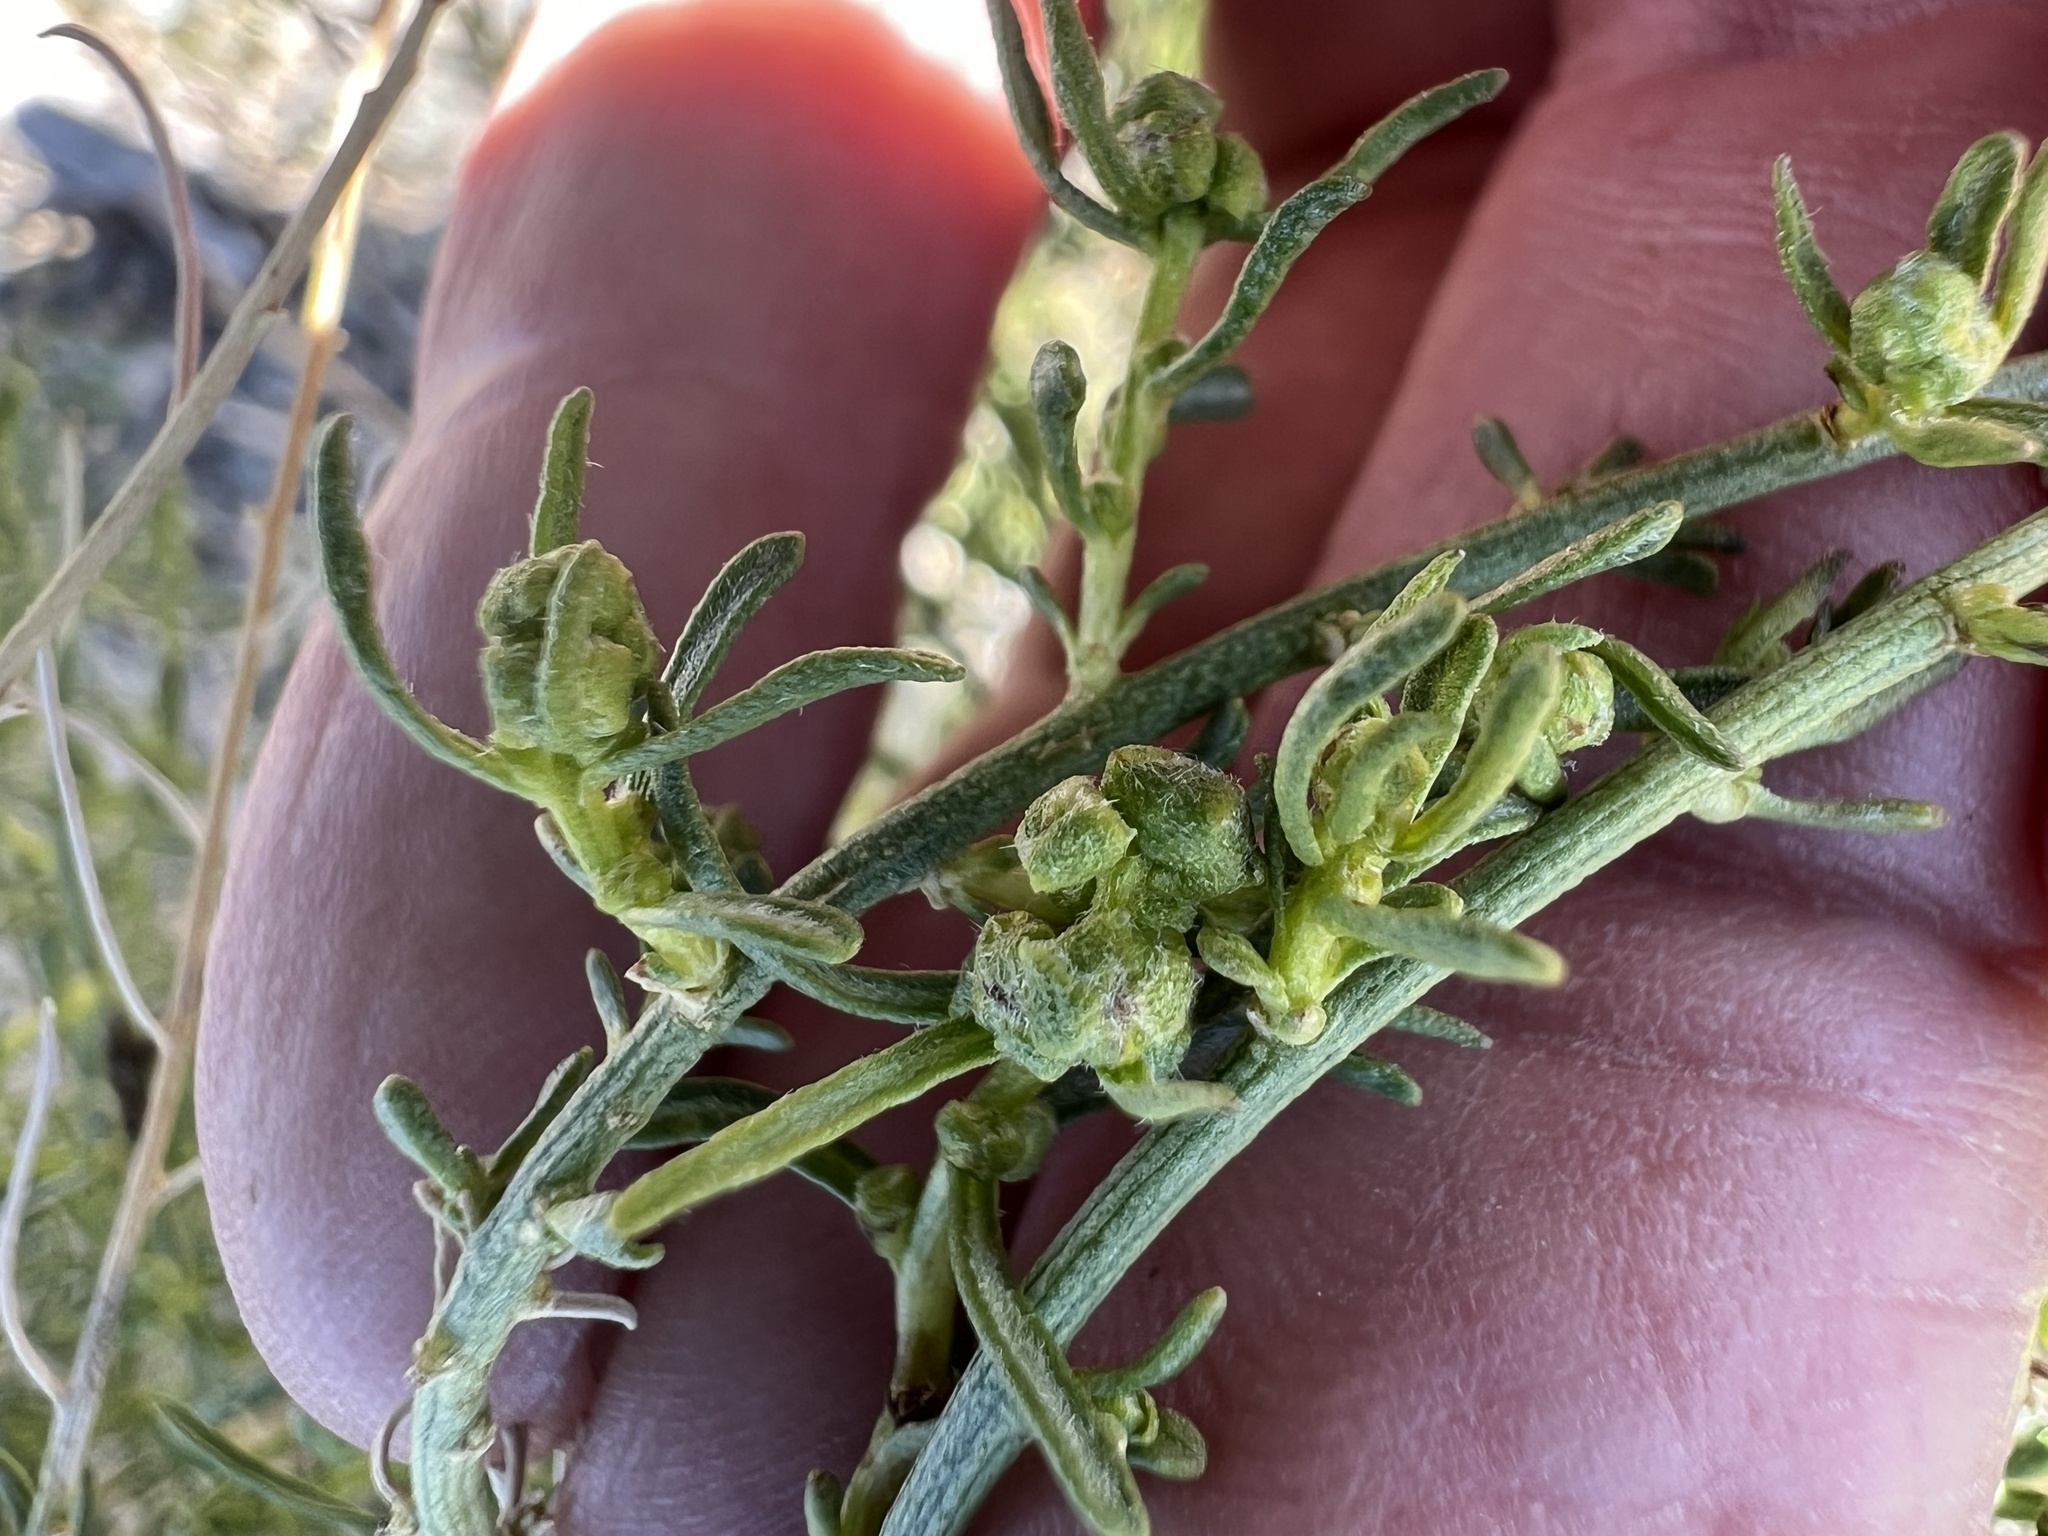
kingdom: Plantae
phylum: Tracheophyta
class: Magnoliopsida
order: Asterales
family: Asteraceae
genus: Ambrosia
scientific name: Ambrosia salsola
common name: Burrobrush
